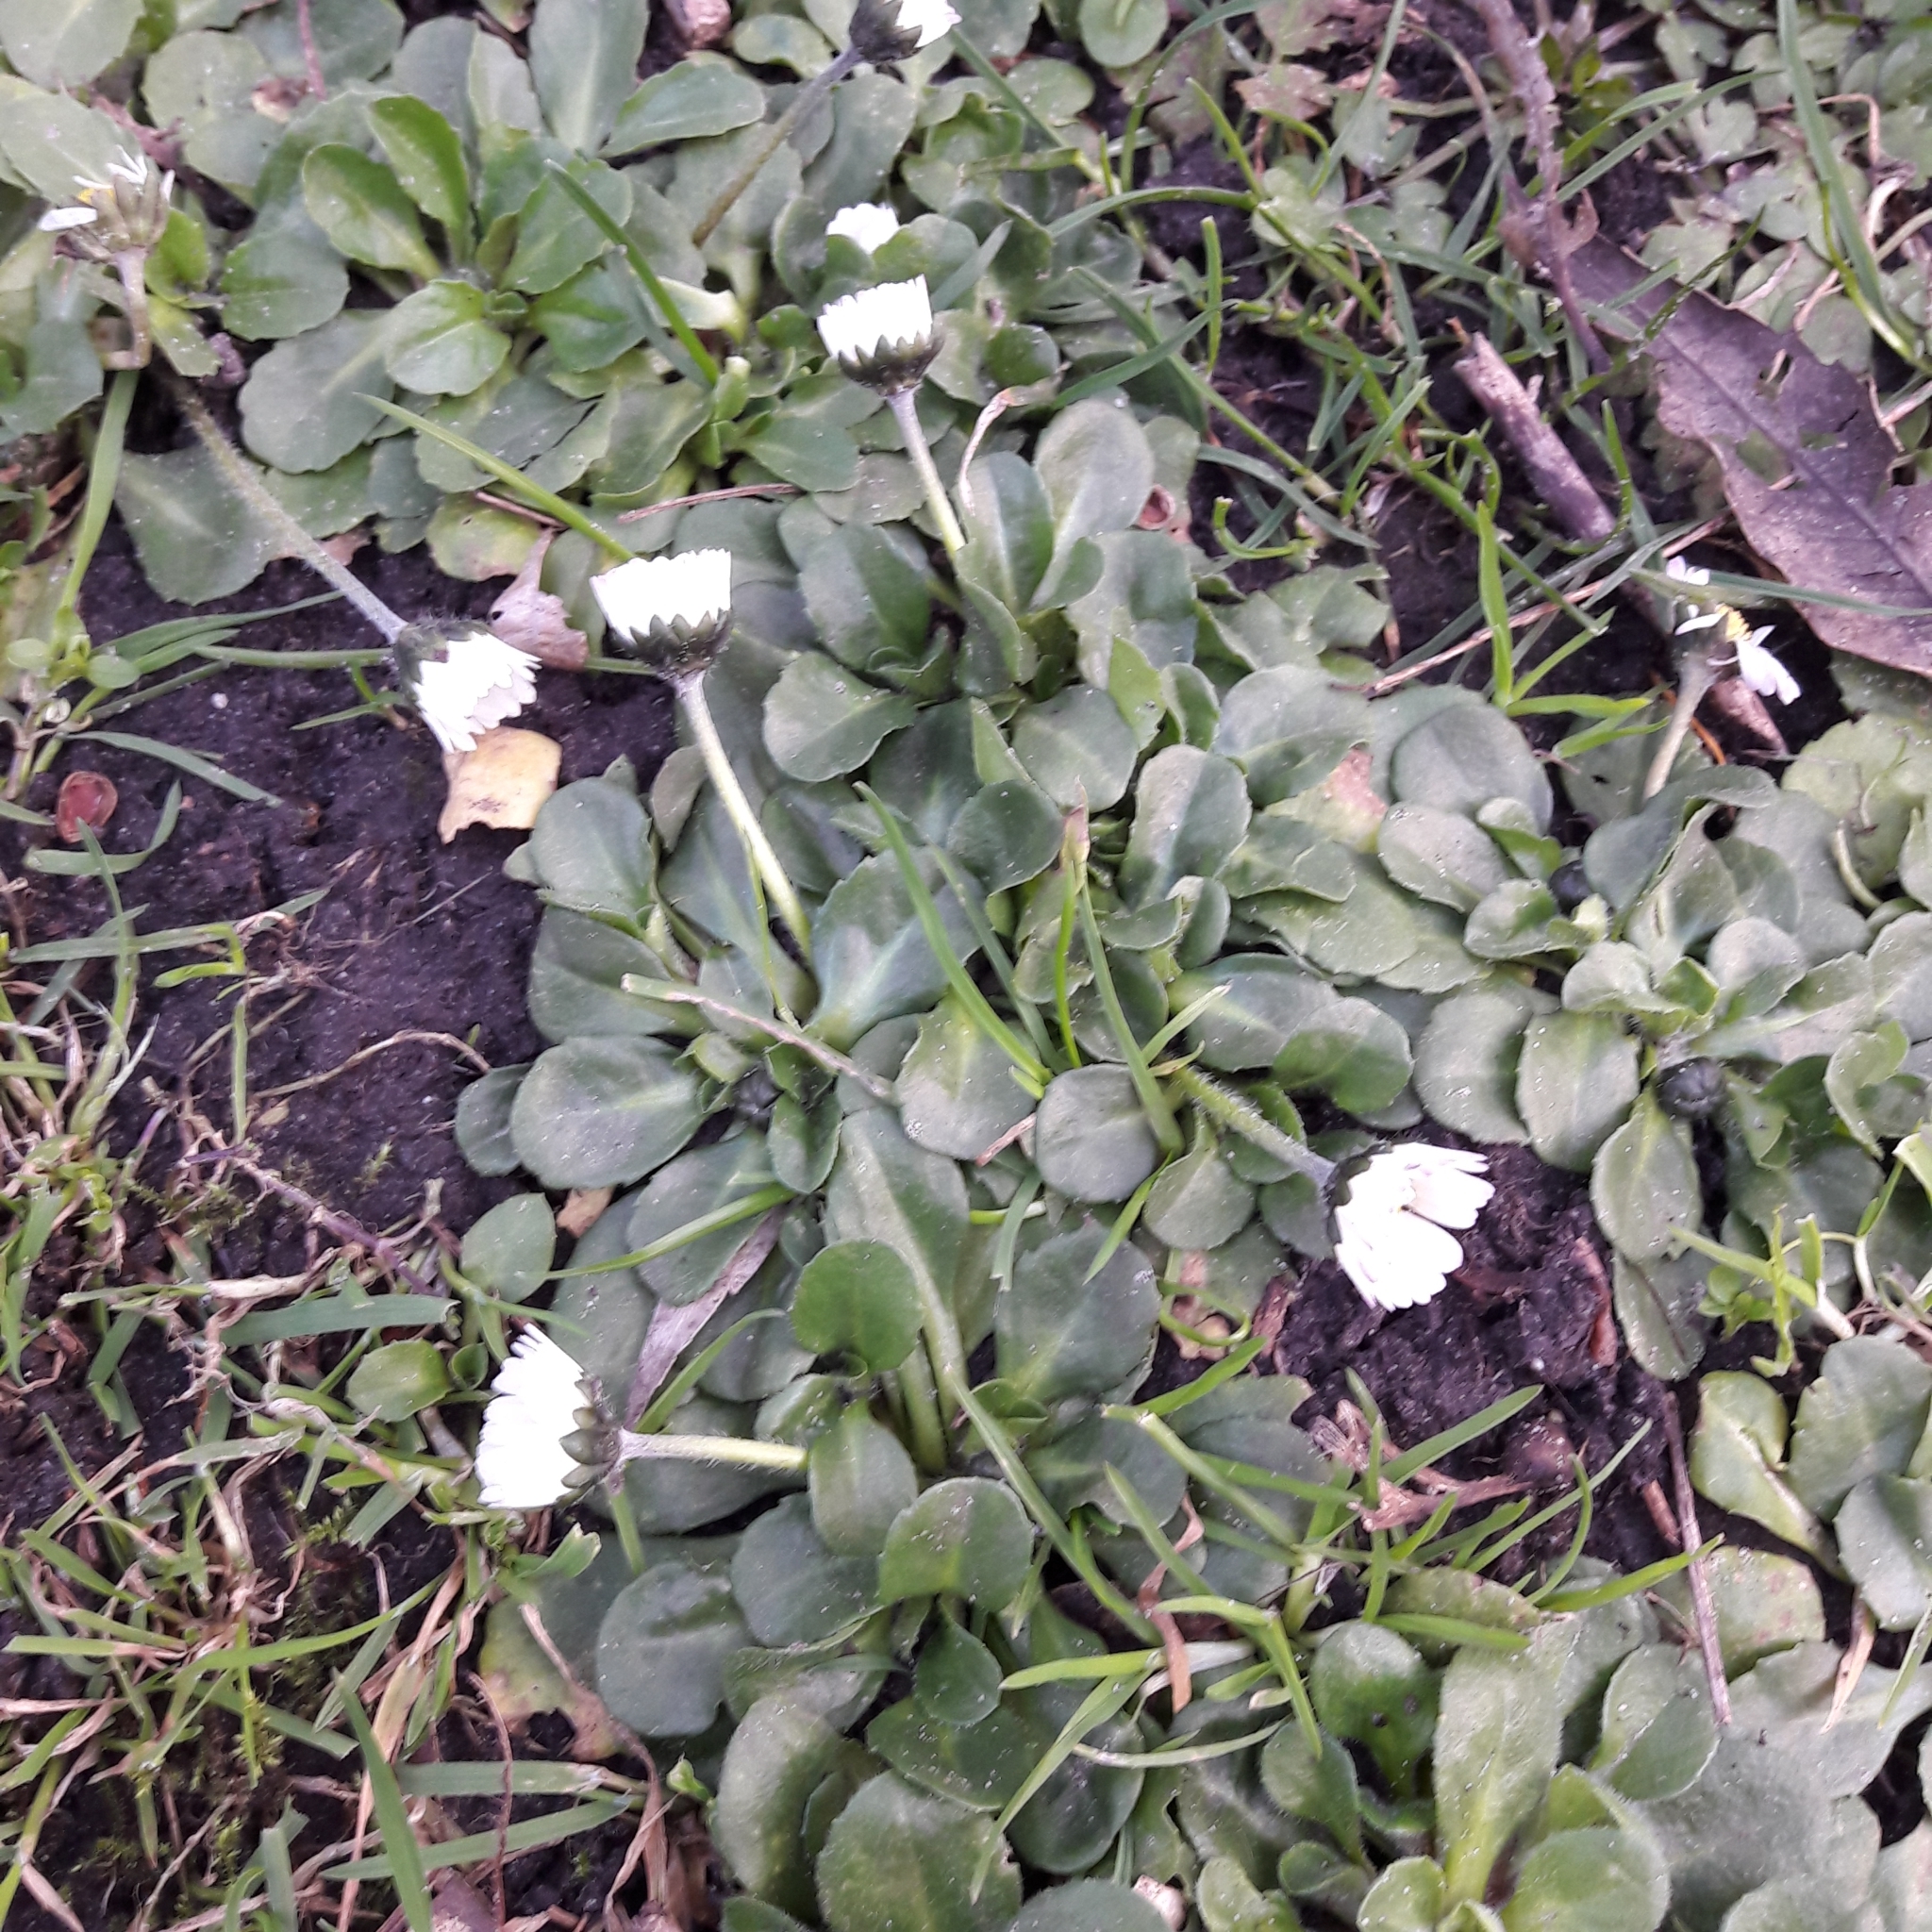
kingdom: Plantae
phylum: Tracheophyta
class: Magnoliopsida
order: Asterales
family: Asteraceae
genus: Bellis
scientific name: Bellis perennis
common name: Lawndaisy
